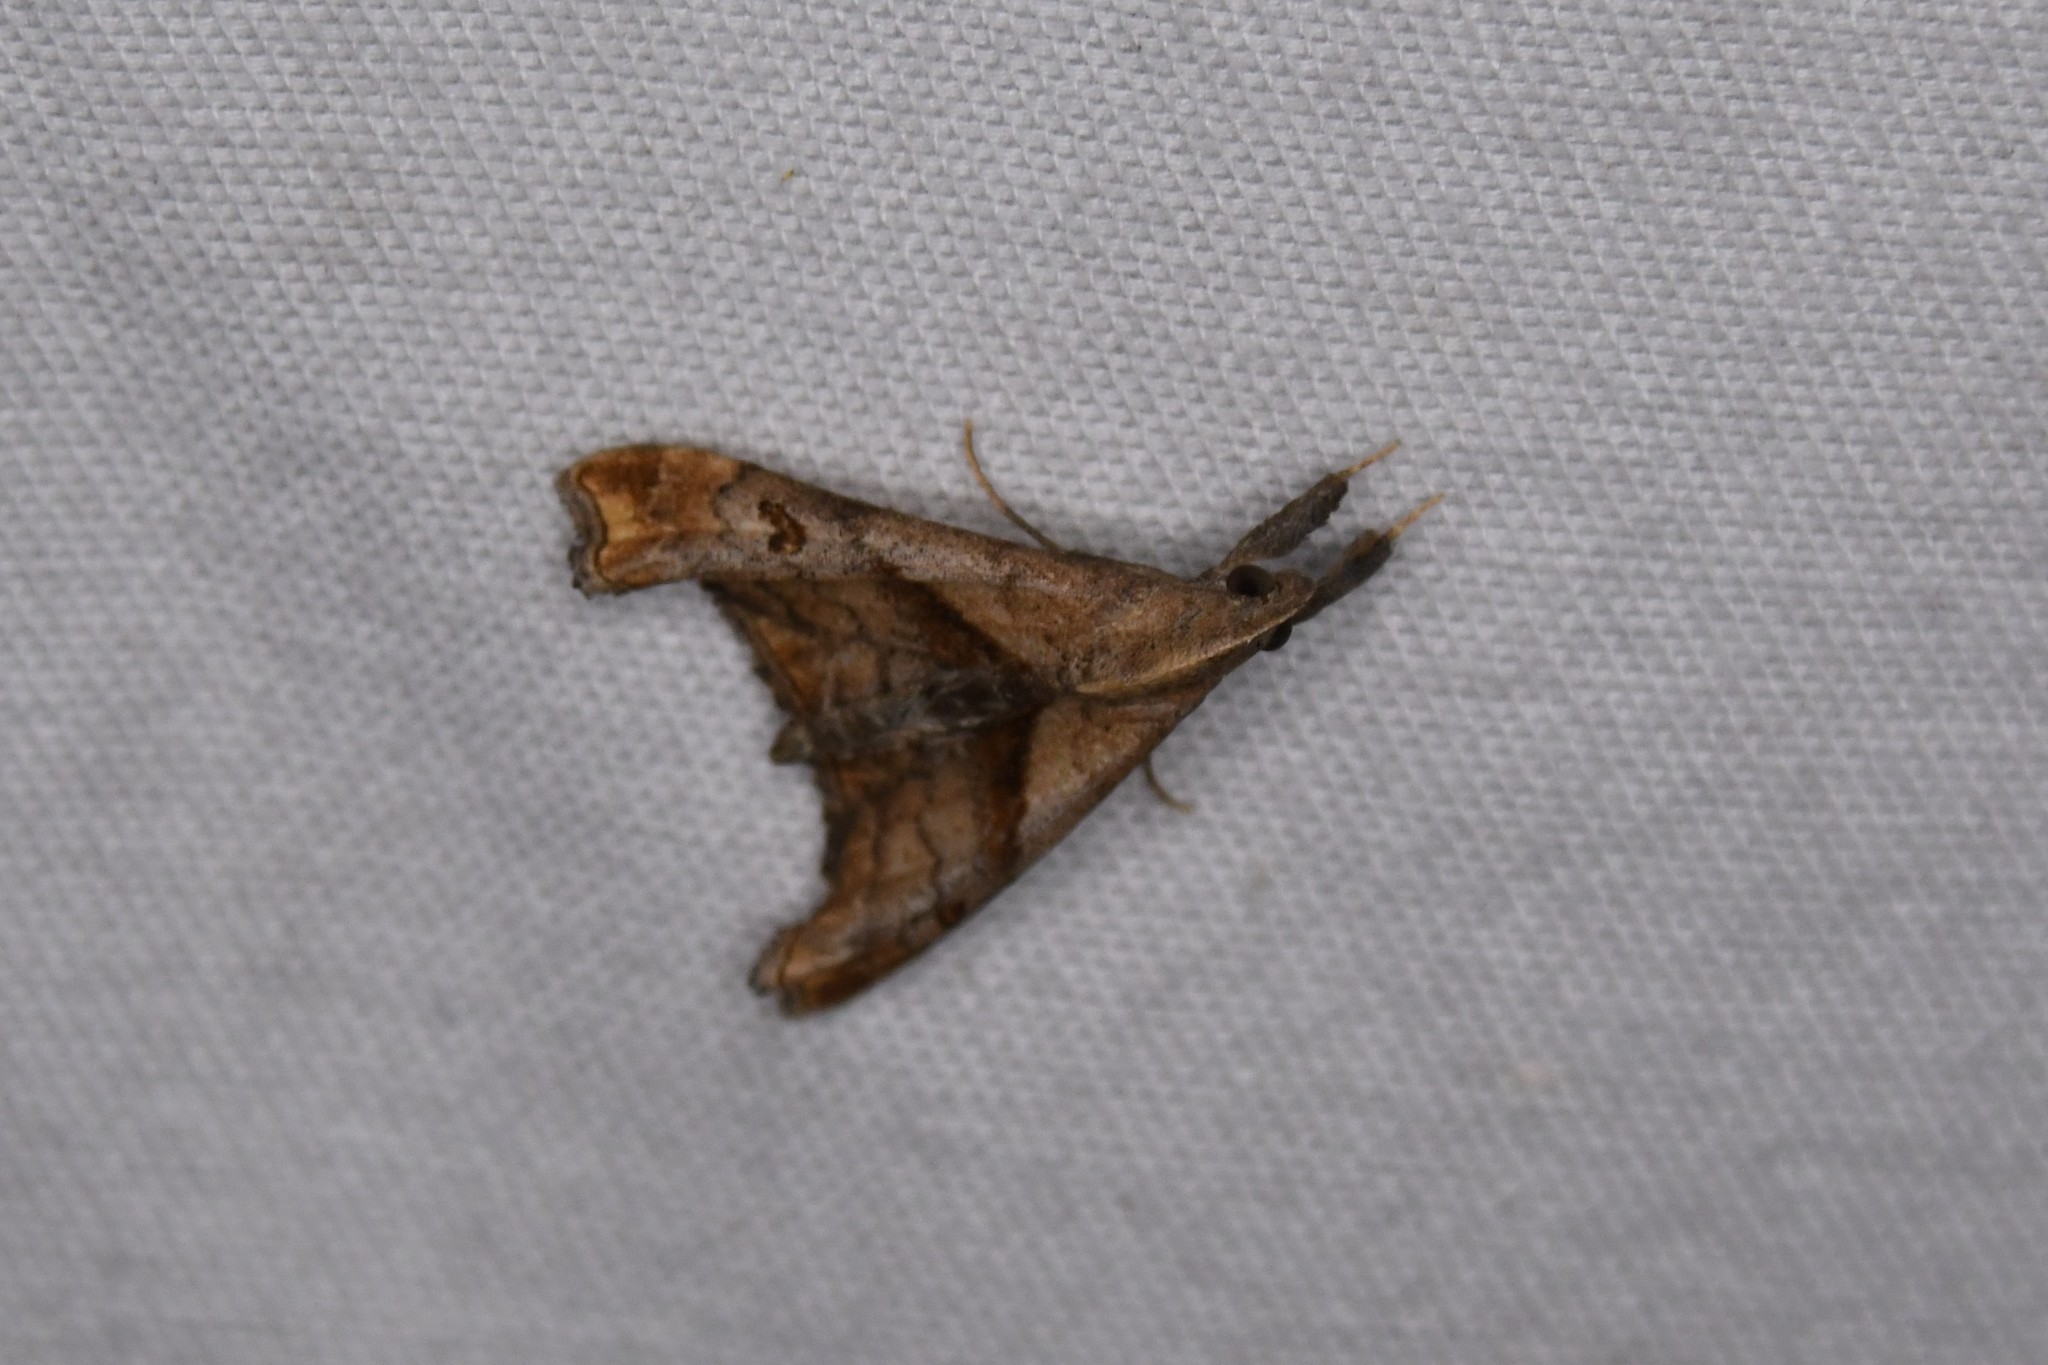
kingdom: Animalia
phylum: Arthropoda
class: Insecta
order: Lepidoptera
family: Erebidae
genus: Palthis
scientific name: Palthis angulalis
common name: Dark-spotted palthis moth
